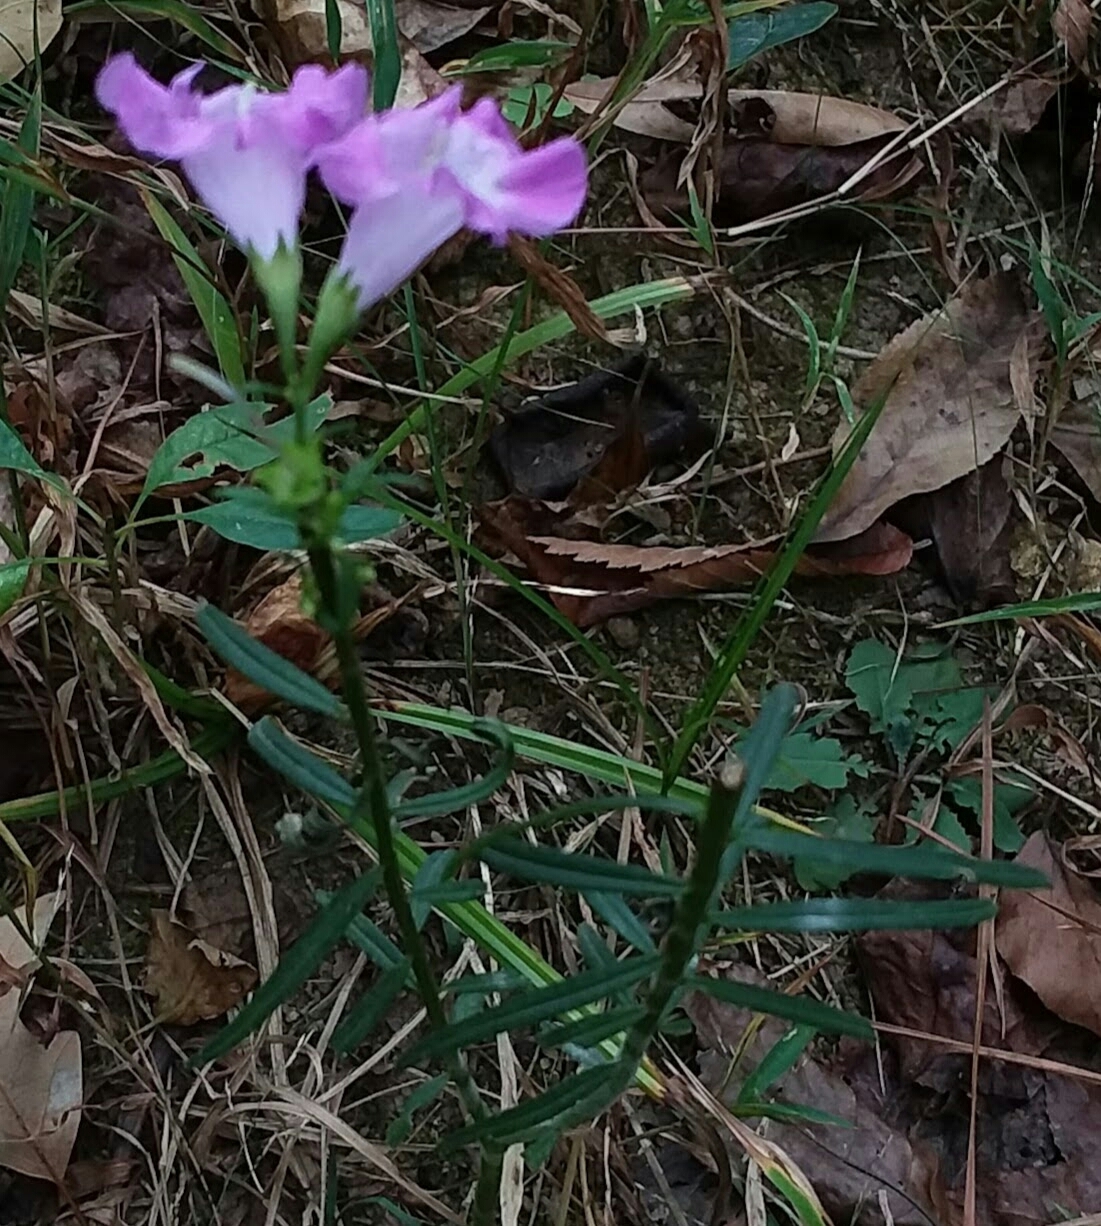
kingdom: Plantae
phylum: Tracheophyta
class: Magnoliopsida
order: Lamiales
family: Orobanchaceae
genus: Agalinis
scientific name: Agalinis purpurea
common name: Purple false foxglove
